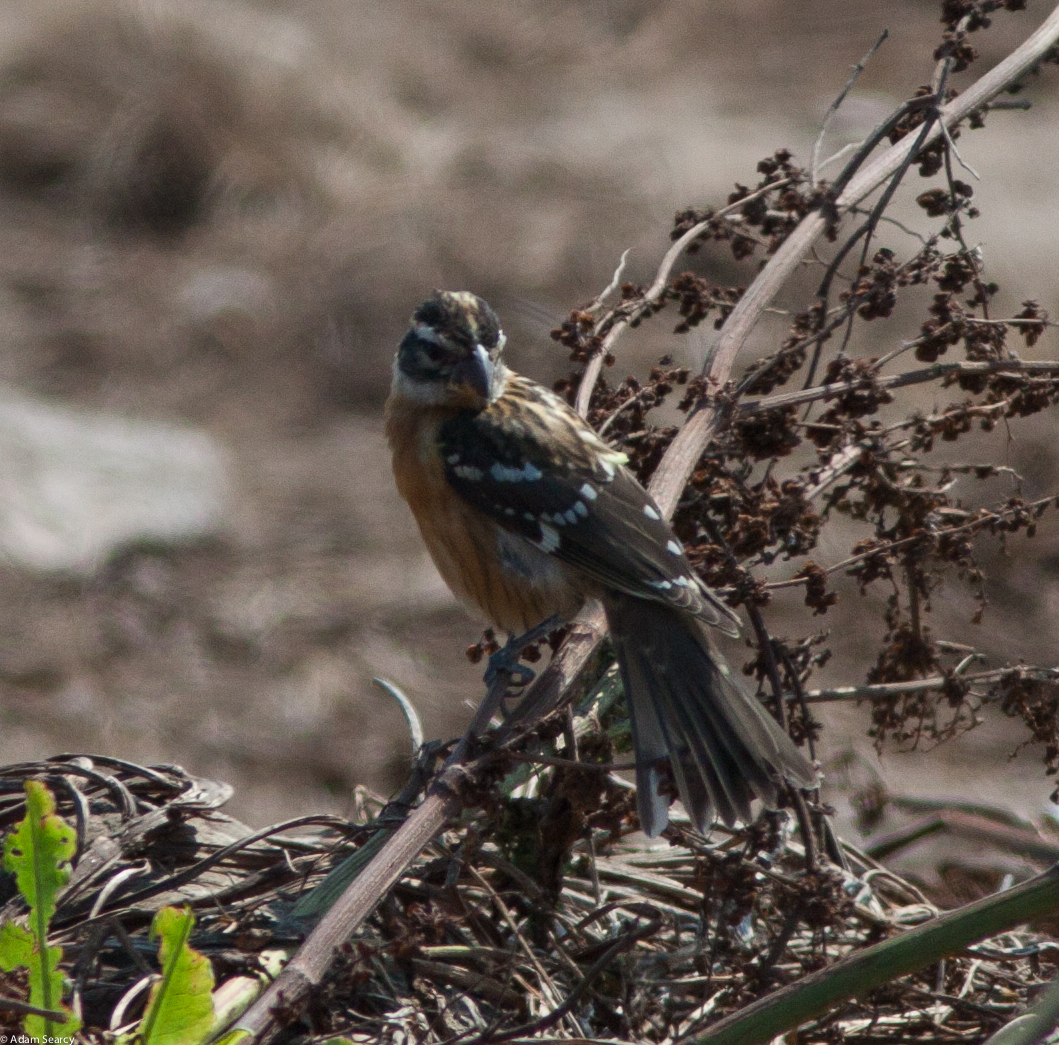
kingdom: Animalia
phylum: Chordata
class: Aves
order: Passeriformes
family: Cardinalidae
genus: Pheucticus
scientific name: Pheucticus melanocephalus
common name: Black-headed grosbeak
